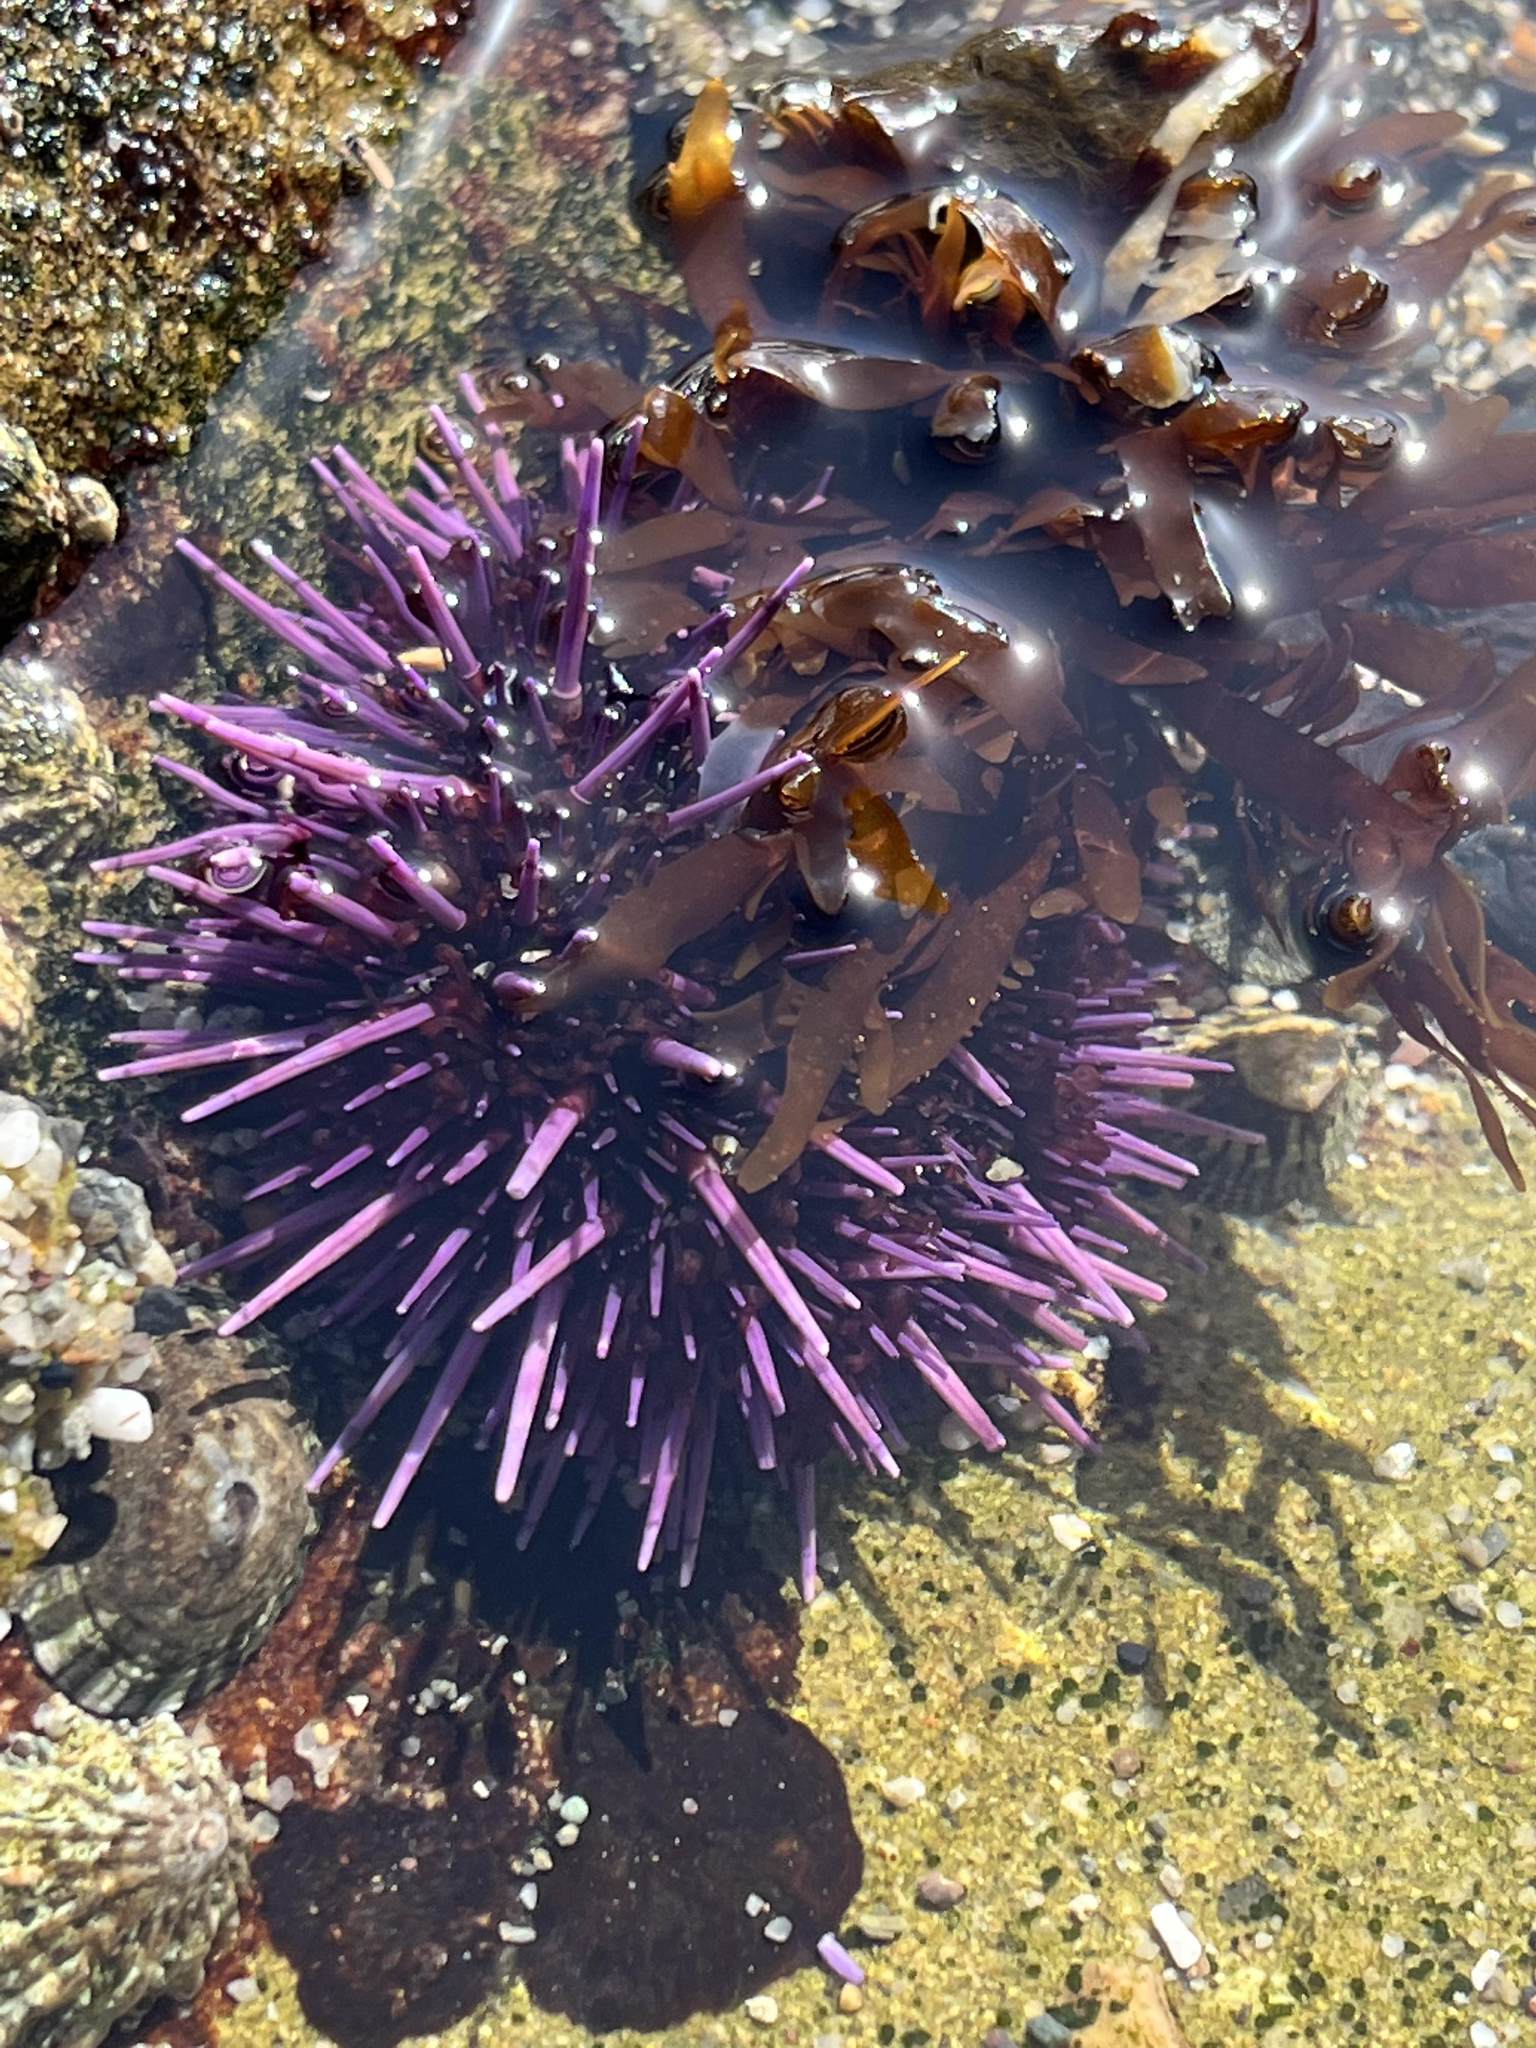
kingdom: Animalia
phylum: Echinodermata
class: Echinoidea
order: Camarodonta
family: Strongylocentrotidae
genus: Strongylocentrotus
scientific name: Strongylocentrotus purpuratus
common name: Purple sea urchin
